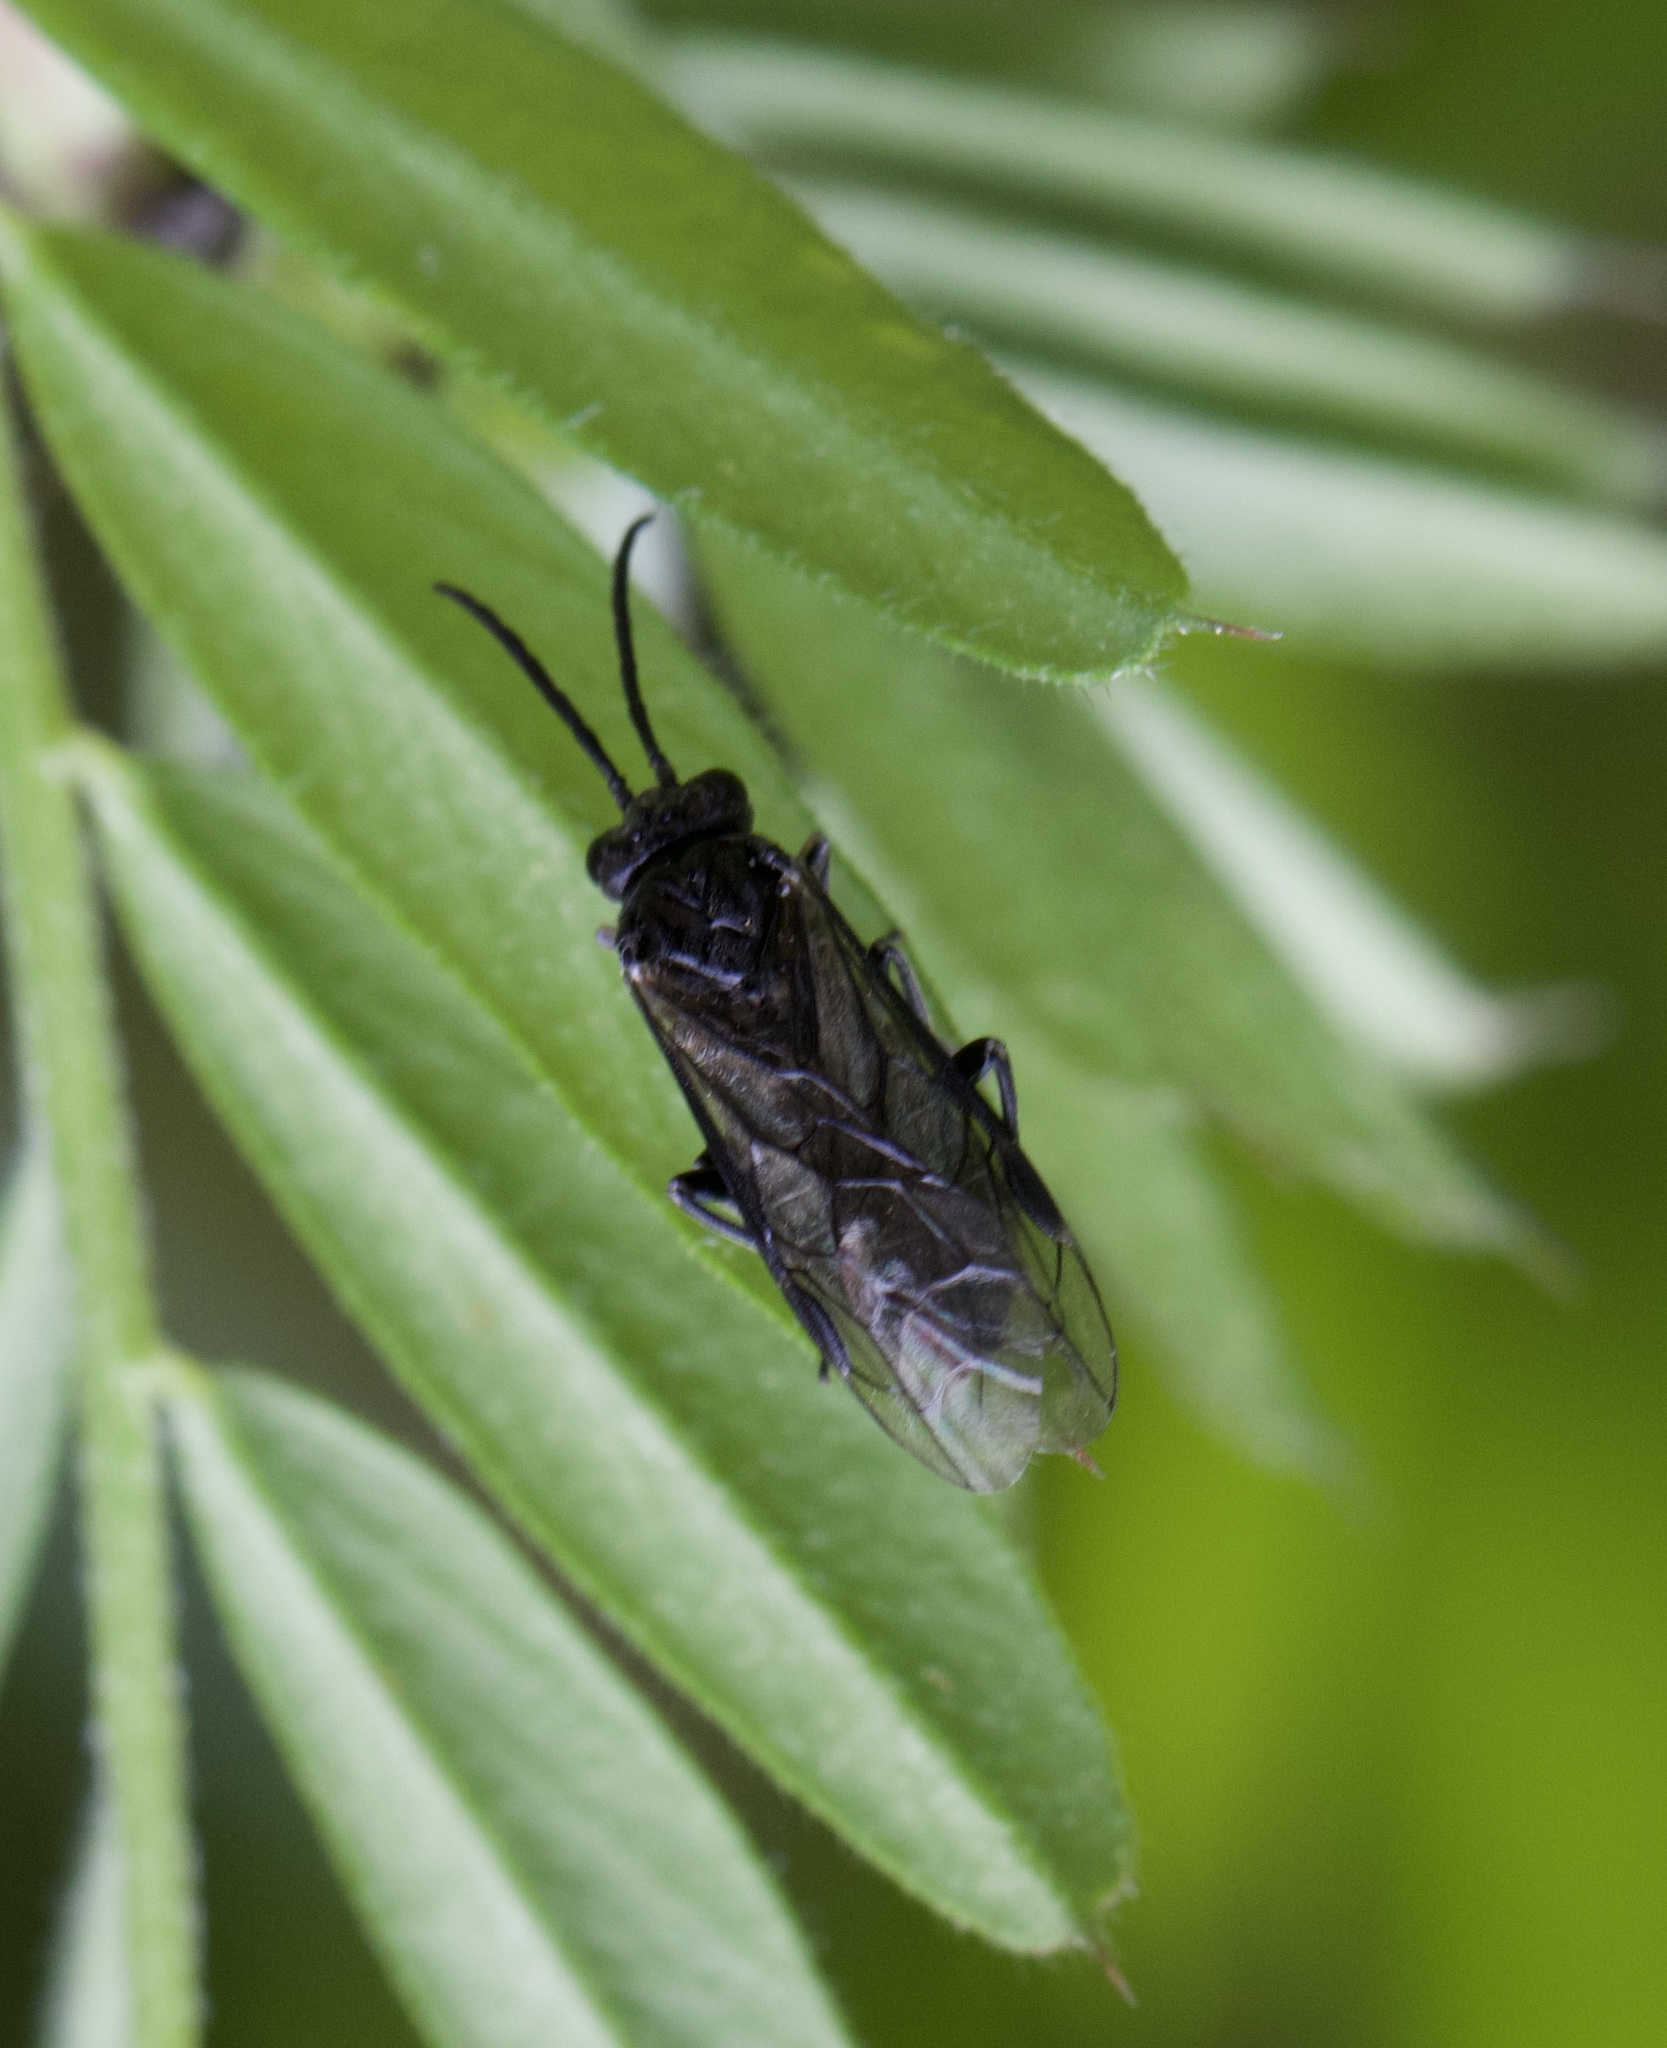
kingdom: Animalia
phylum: Arthropoda
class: Insecta
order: Hymenoptera
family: Tenthredinidae
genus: Empria
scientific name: Empria
